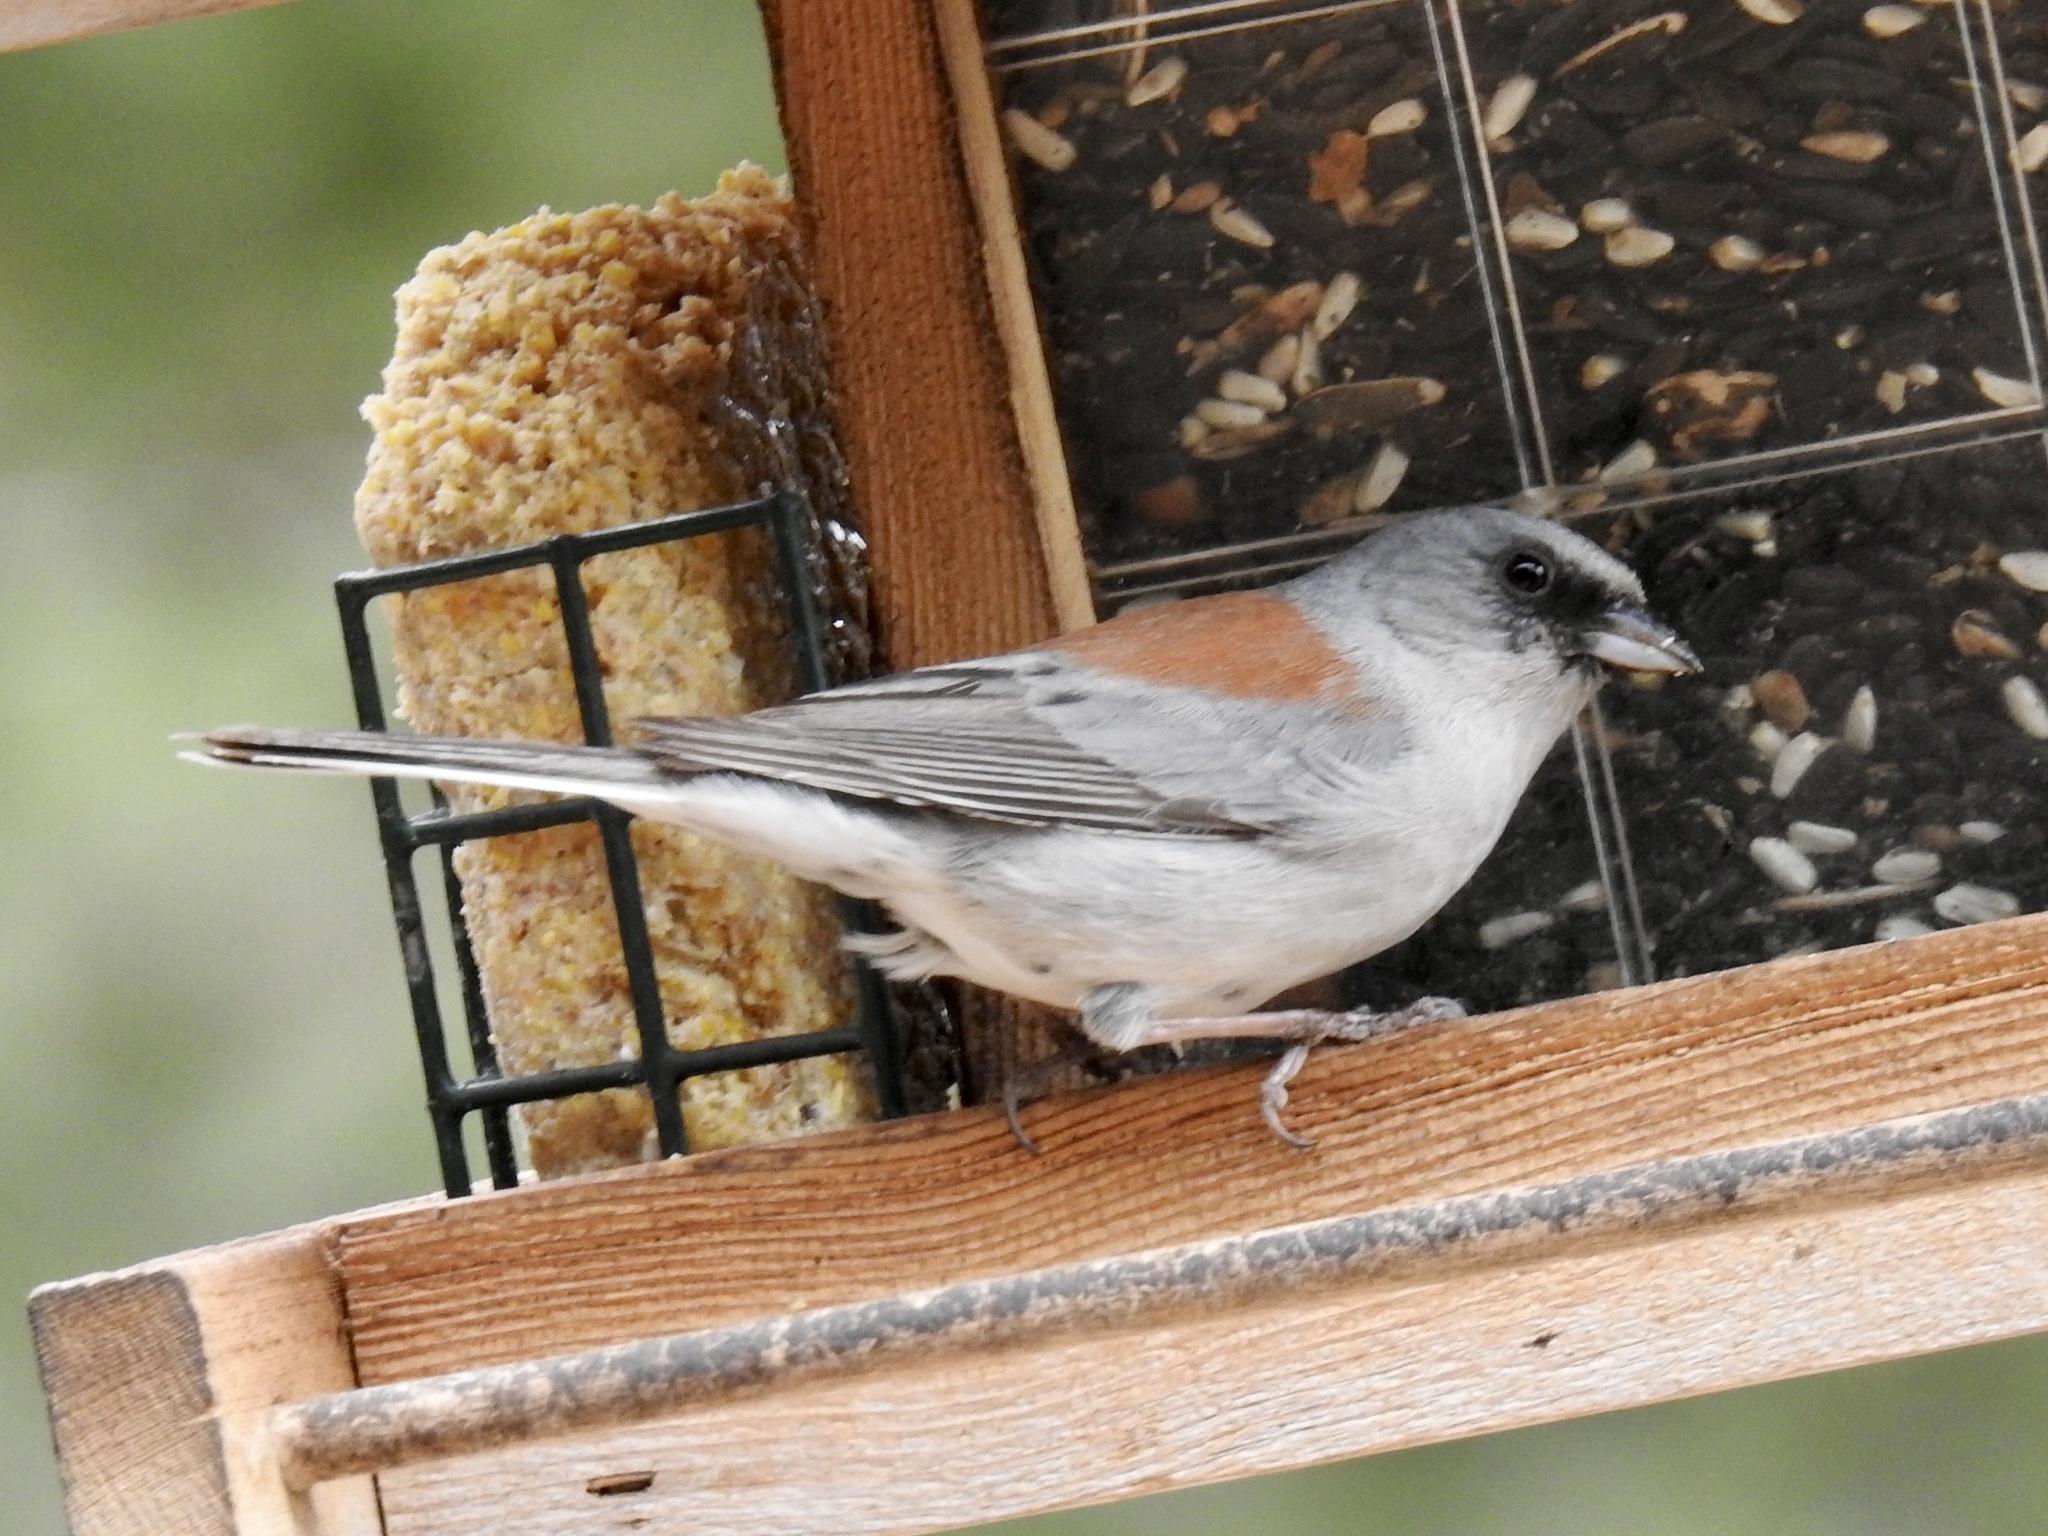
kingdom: Animalia
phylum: Chordata
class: Aves
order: Passeriformes
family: Passerellidae
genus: Junco
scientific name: Junco hyemalis
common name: Dark-eyed junco
